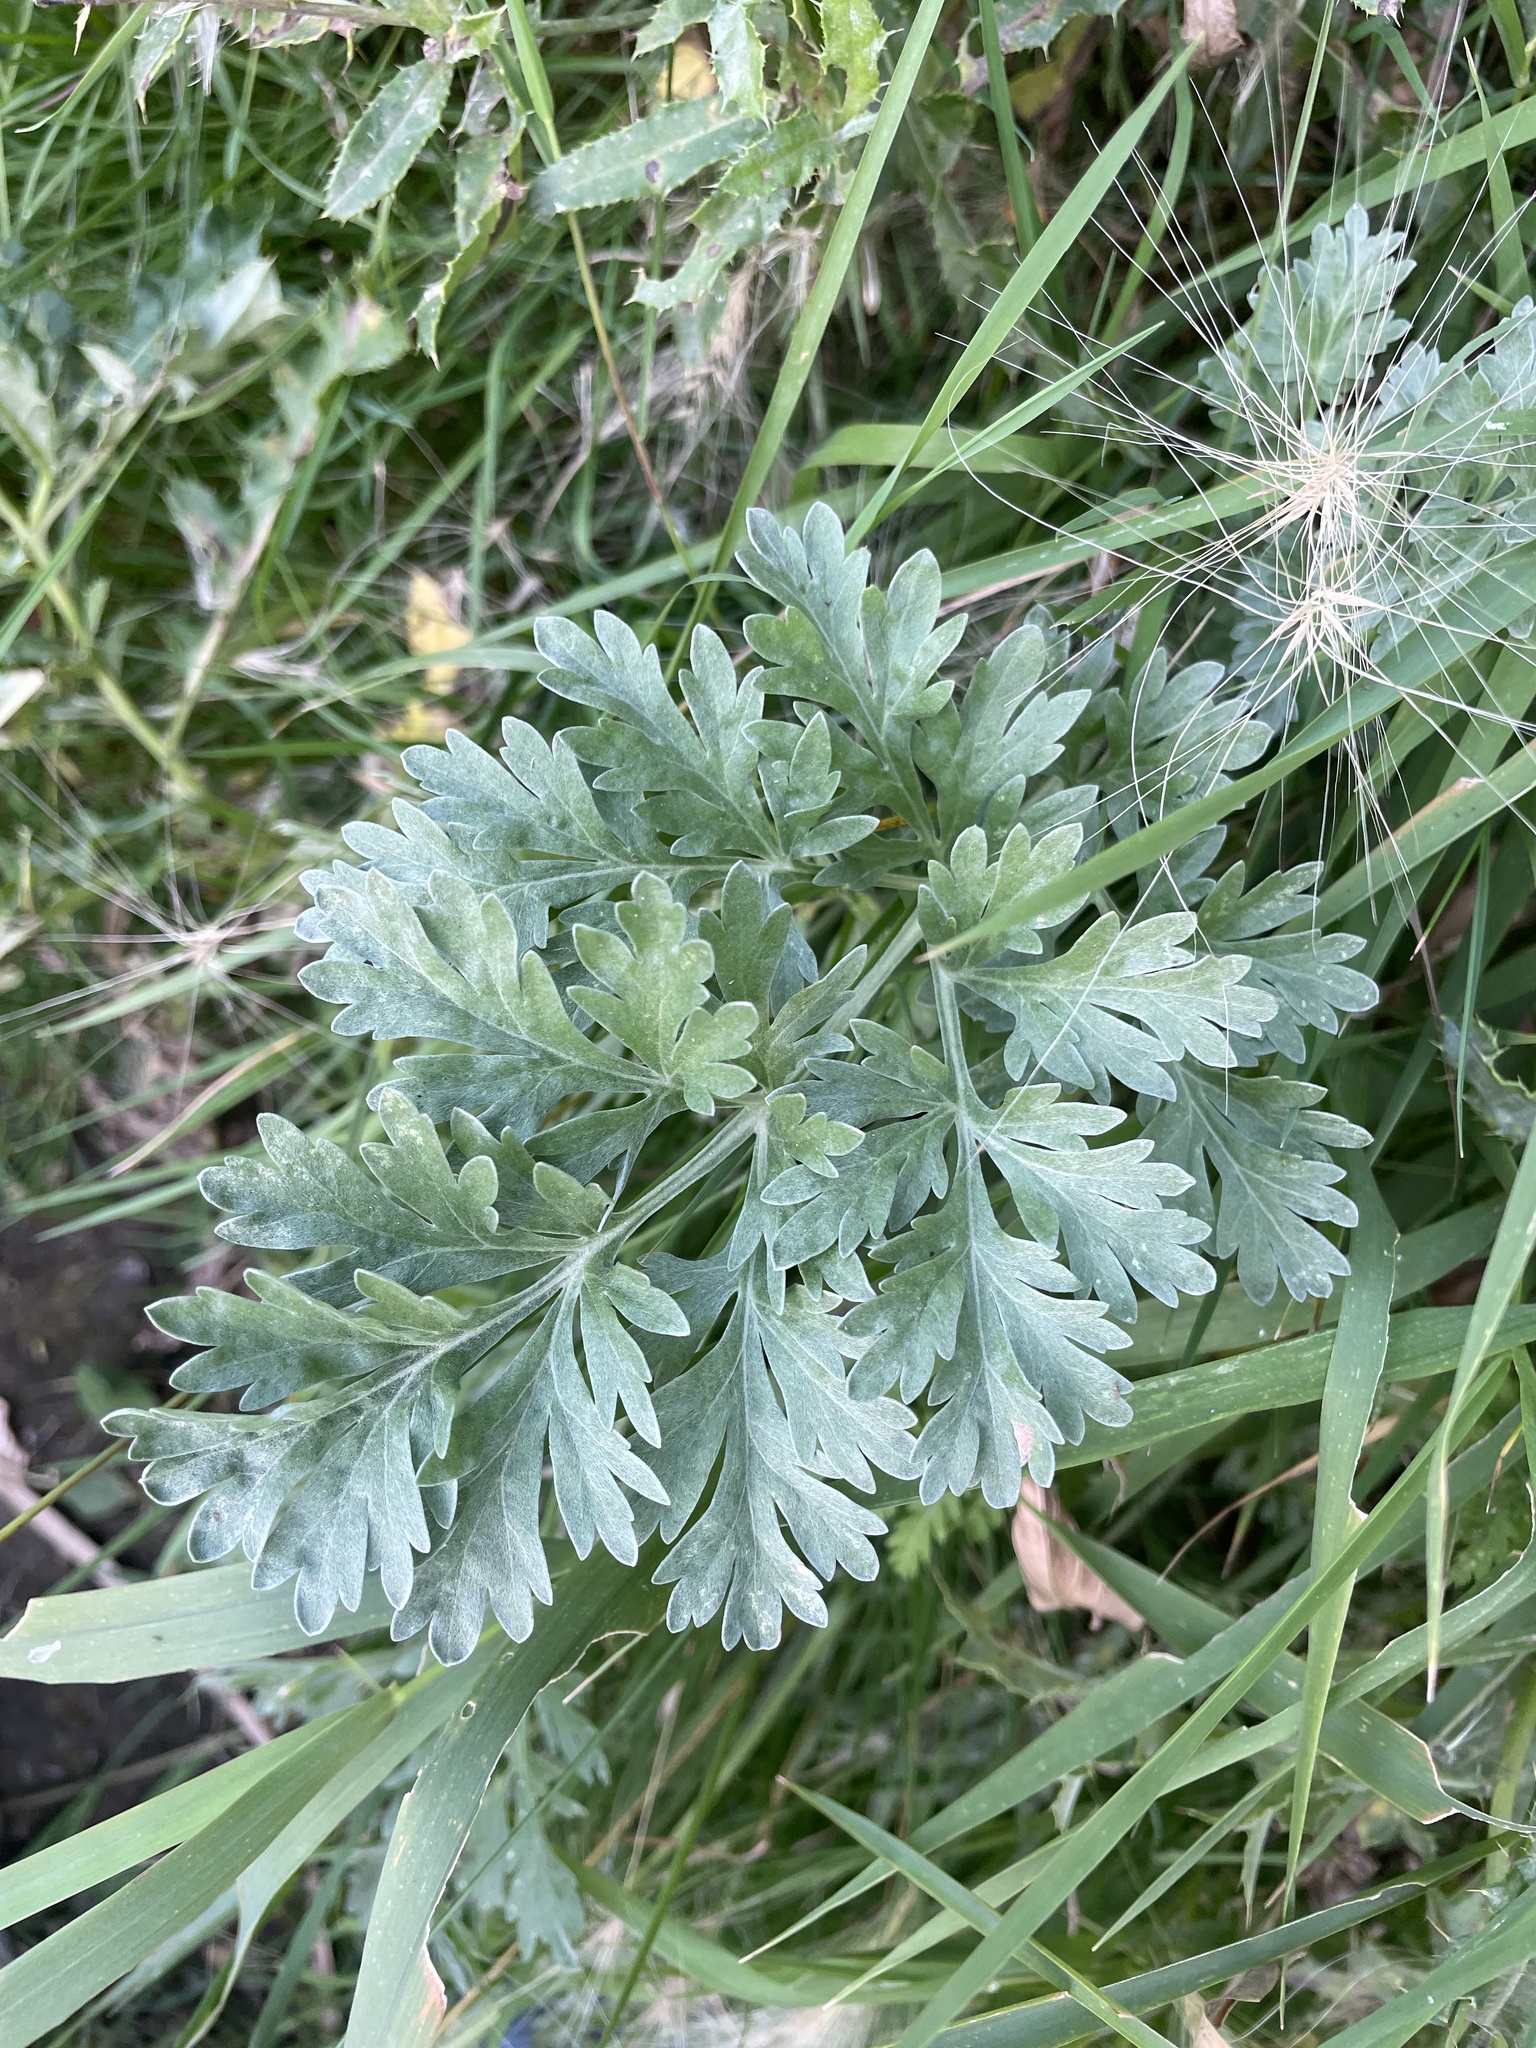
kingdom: Plantae
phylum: Tracheophyta
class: Magnoliopsida
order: Asterales
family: Asteraceae
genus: Artemisia
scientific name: Artemisia absinthium
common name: Wormwood
